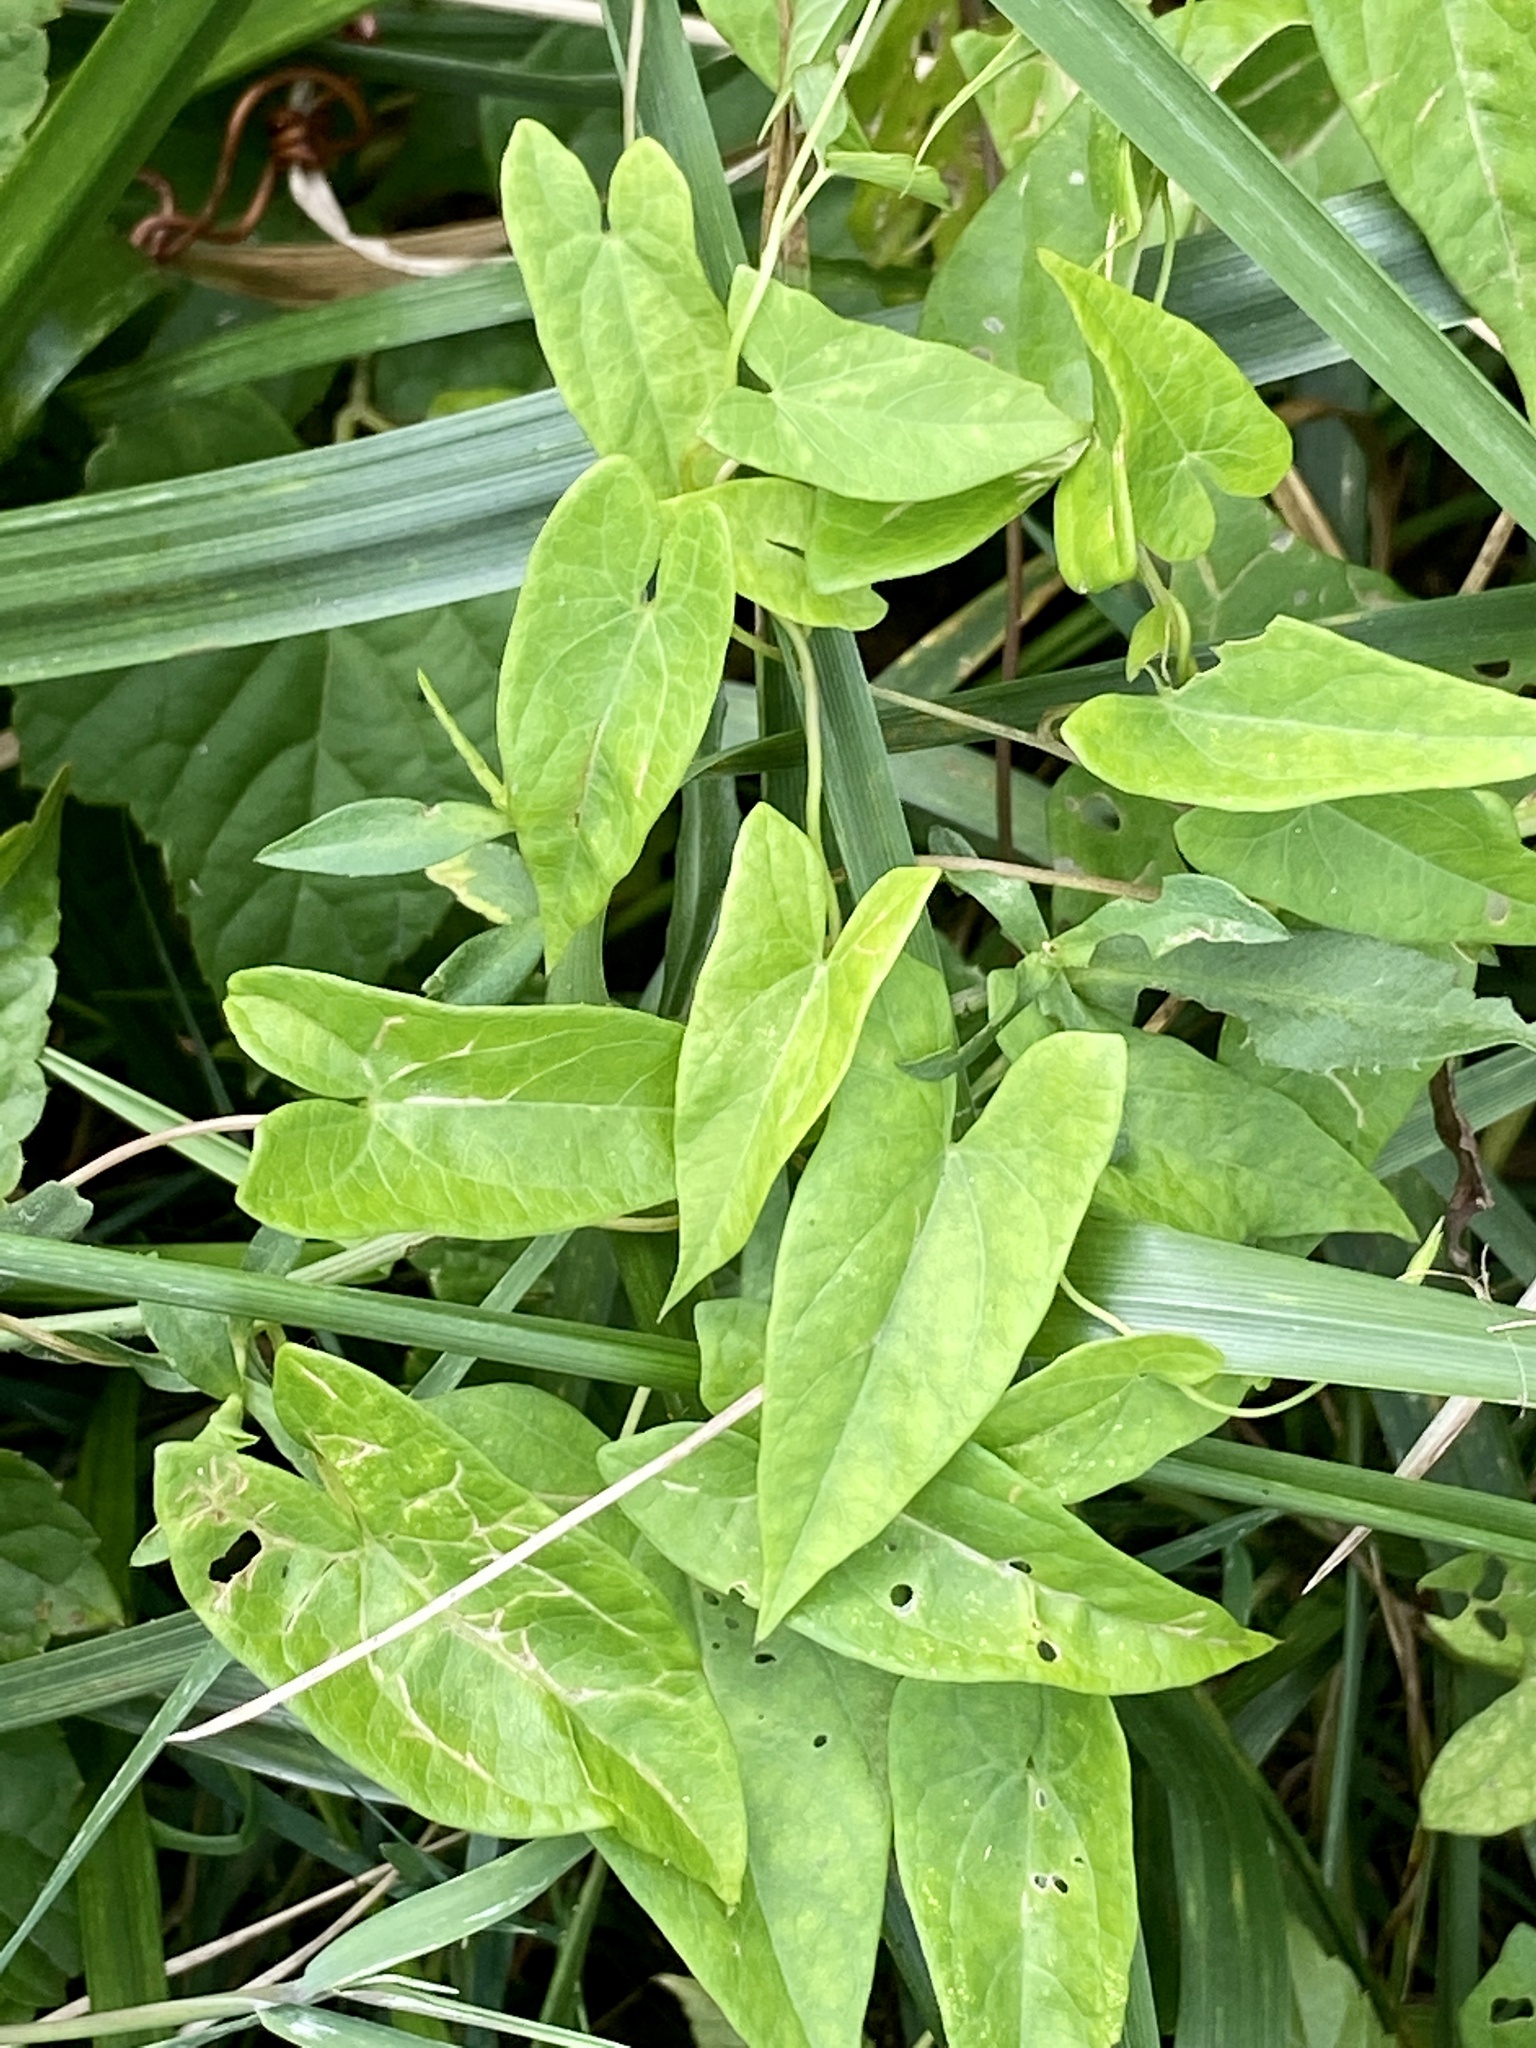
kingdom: Plantae
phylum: Tracheophyta
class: Magnoliopsida
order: Solanales
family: Convolvulaceae
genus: Calystegia
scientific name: Calystegia sepium
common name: Hedge bindweed
